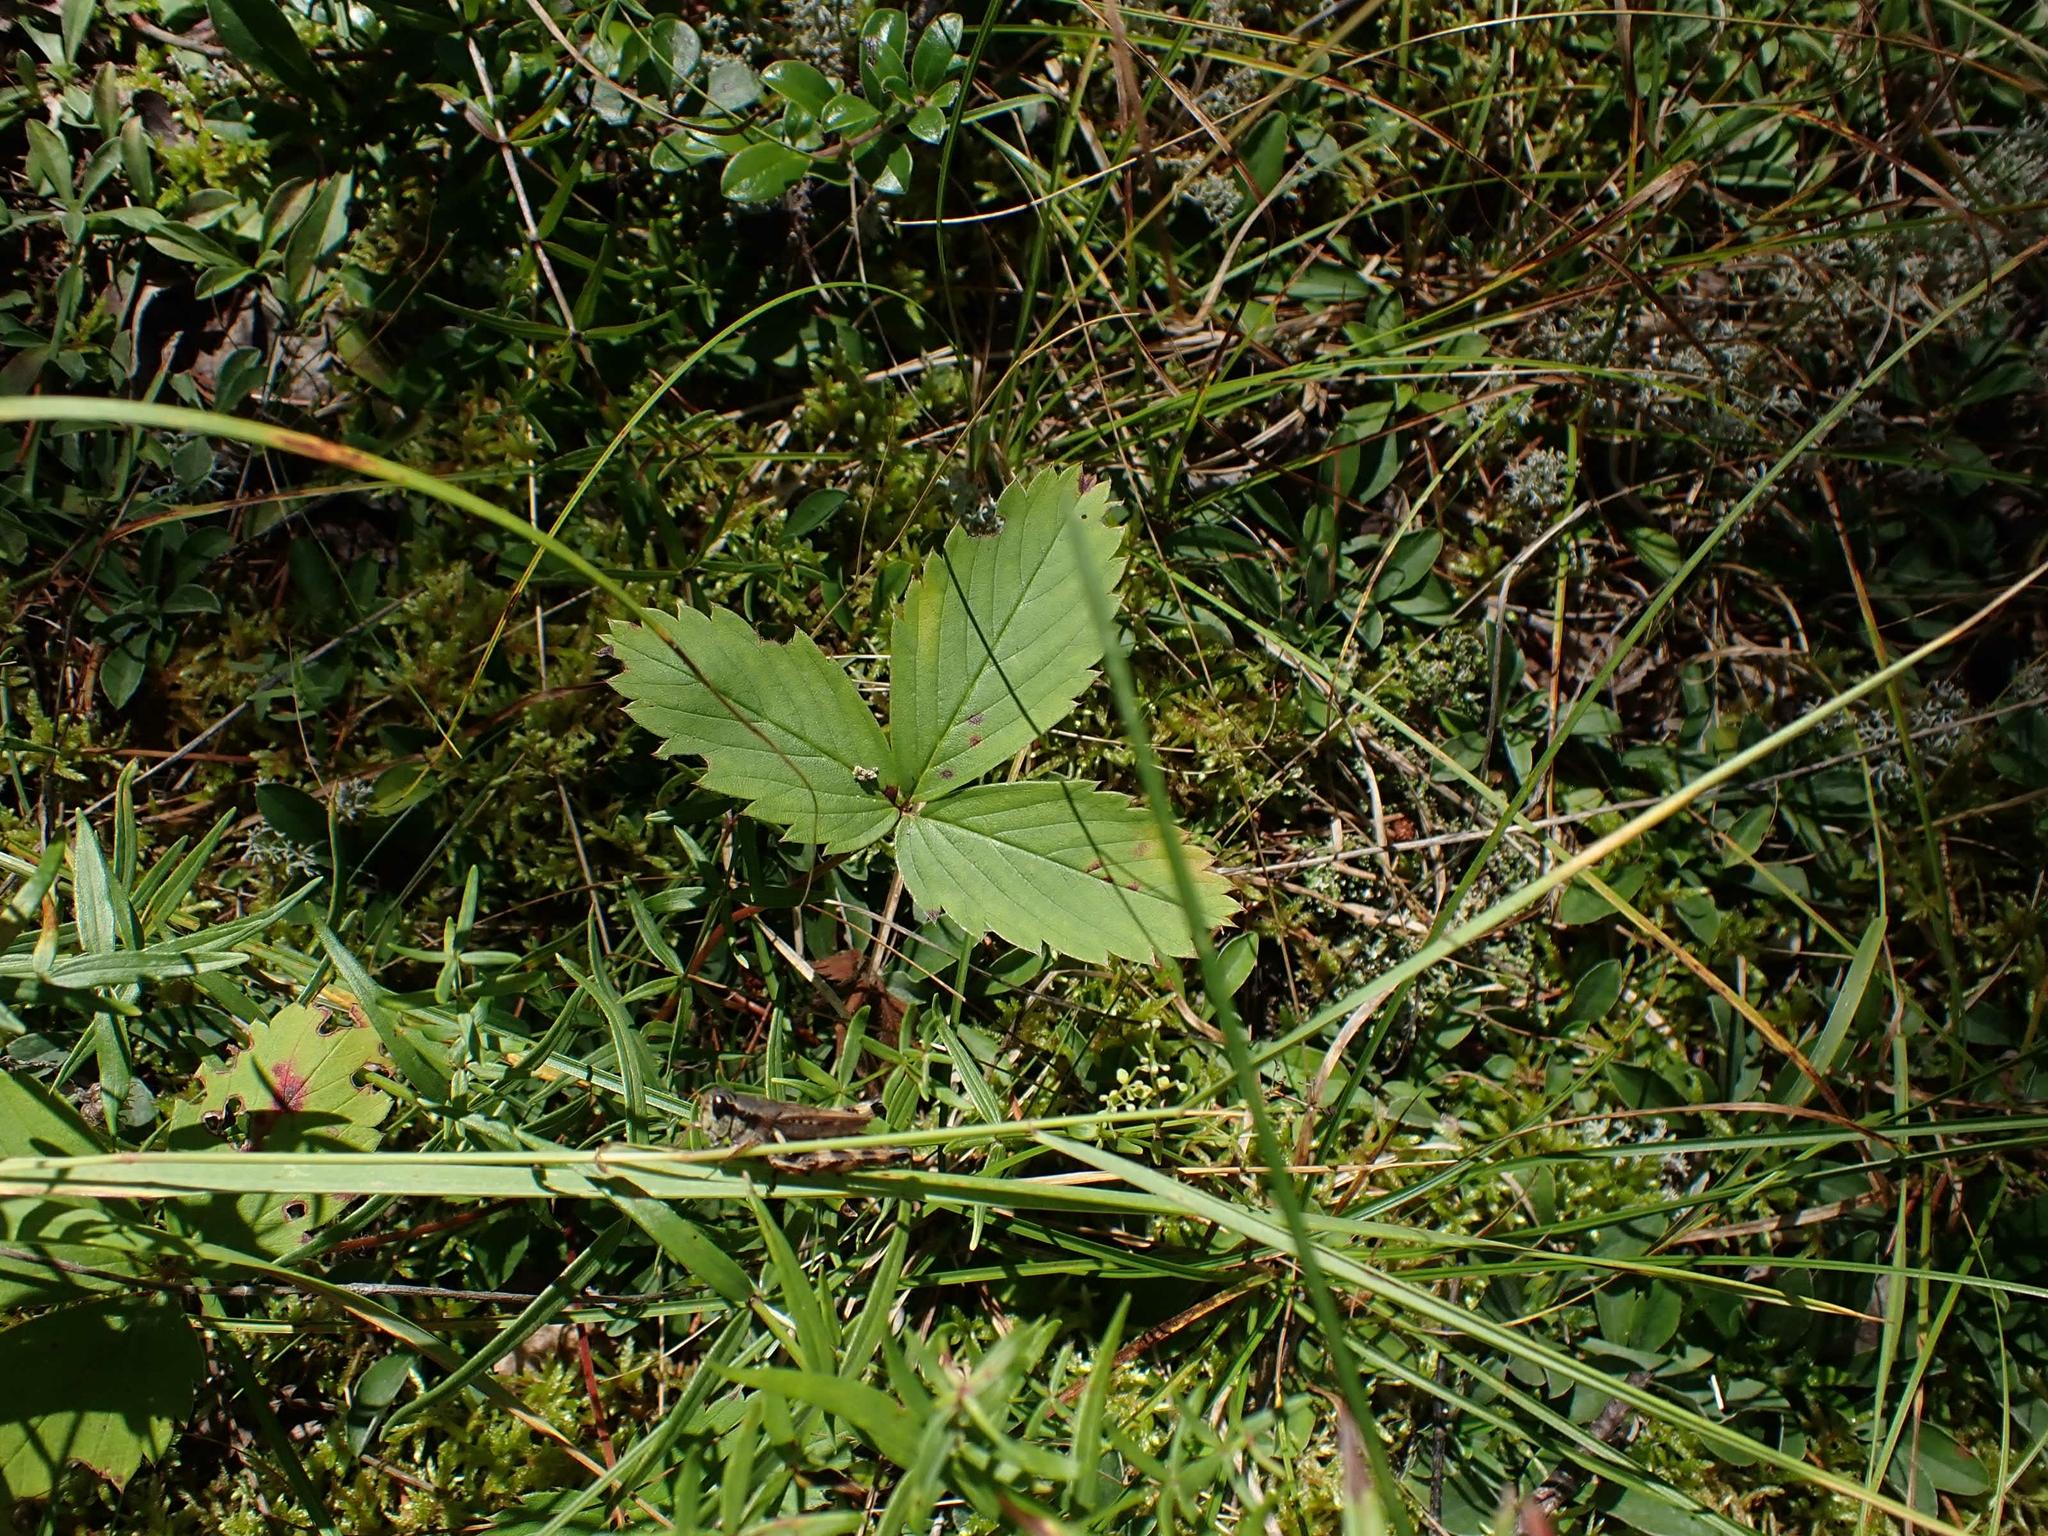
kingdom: Plantae
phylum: Tracheophyta
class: Magnoliopsida
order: Rosales
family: Rosaceae
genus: Fragaria
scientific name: Fragaria virginiana
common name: Thickleaved wild strawberry
